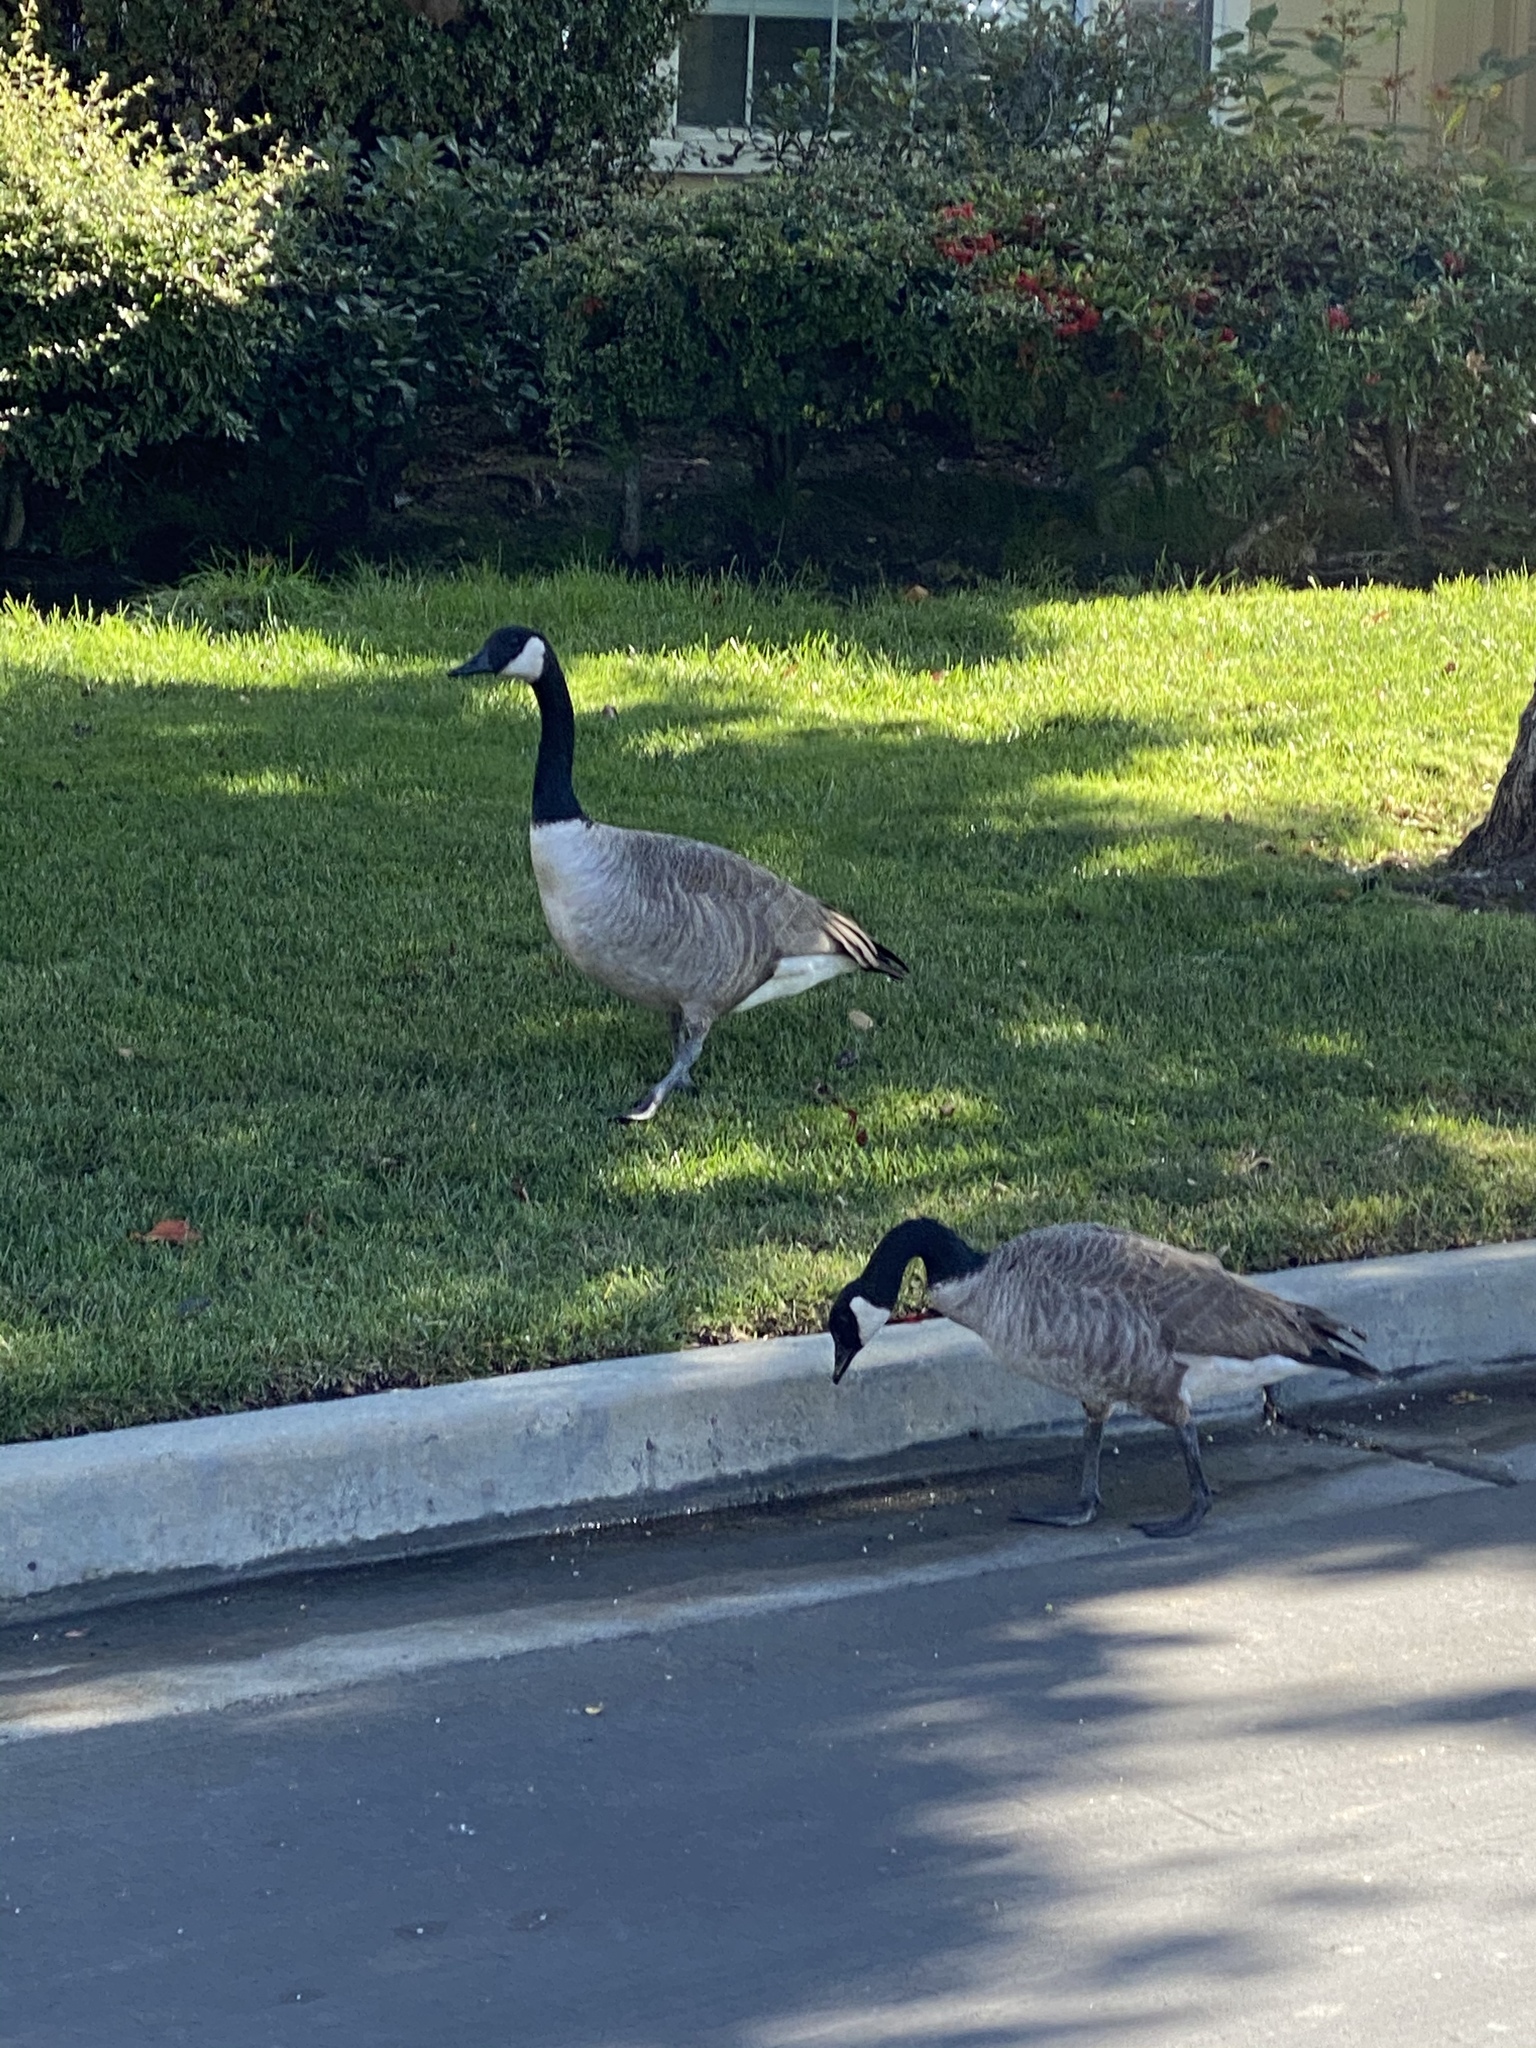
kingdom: Animalia
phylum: Chordata
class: Aves
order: Anseriformes
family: Anatidae
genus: Branta
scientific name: Branta canadensis
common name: Canada goose
